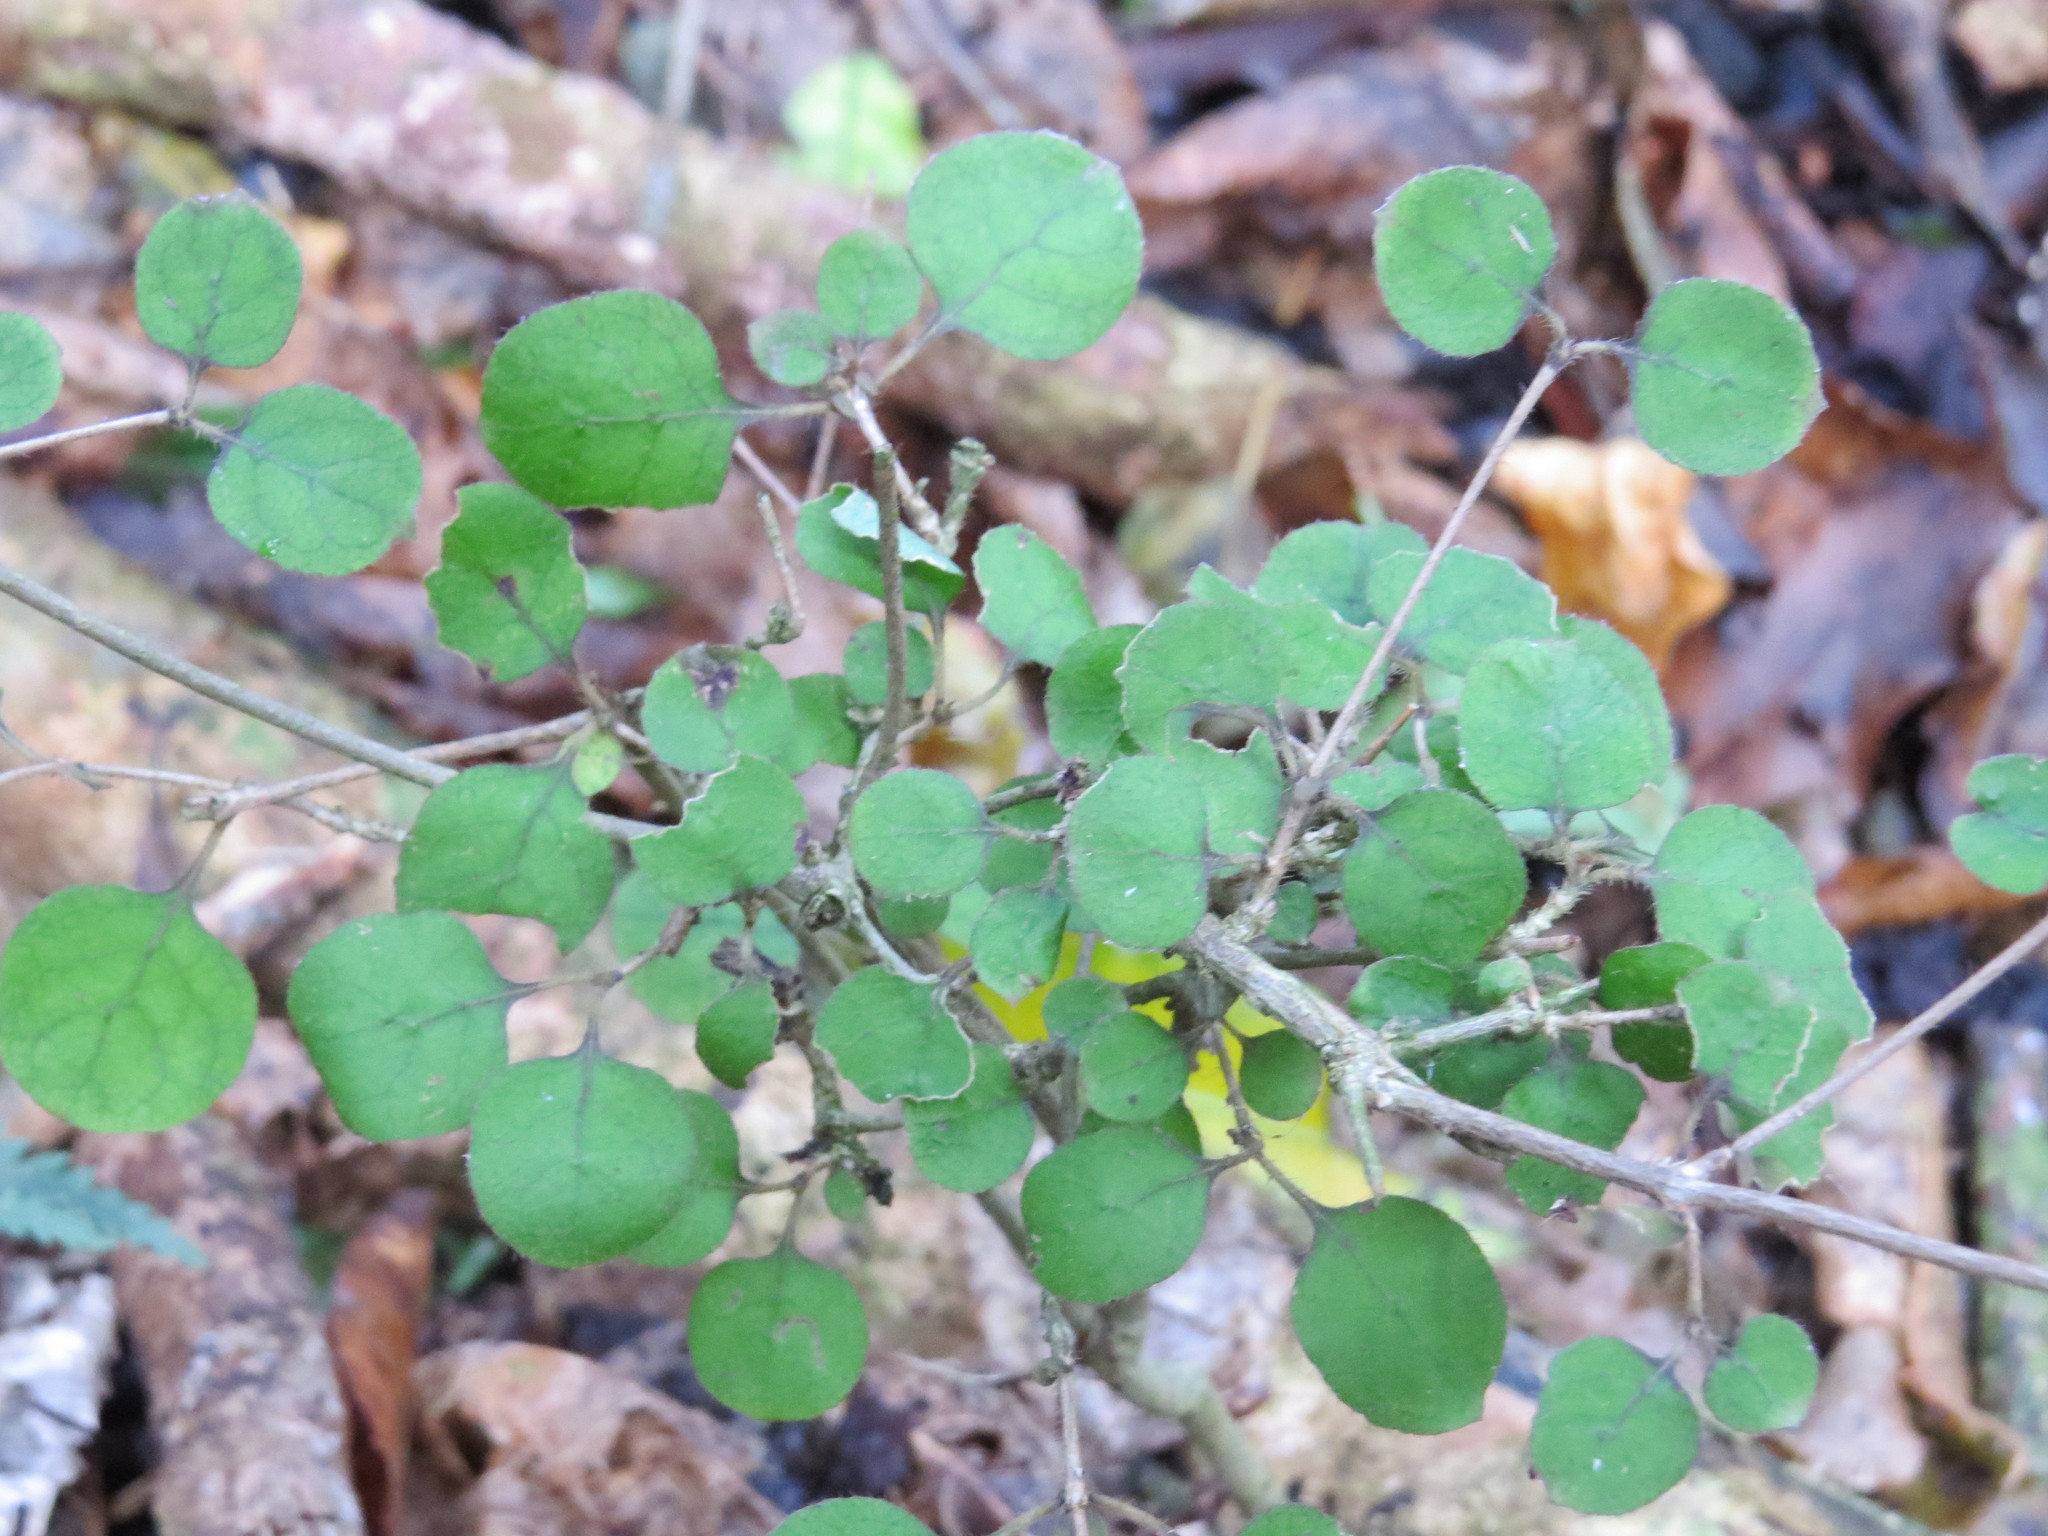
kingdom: Plantae
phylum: Tracheophyta
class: Magnoliopsida
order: Gentianales
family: Rubiaceae
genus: Coprosma
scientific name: Coprosma rotundifolia
